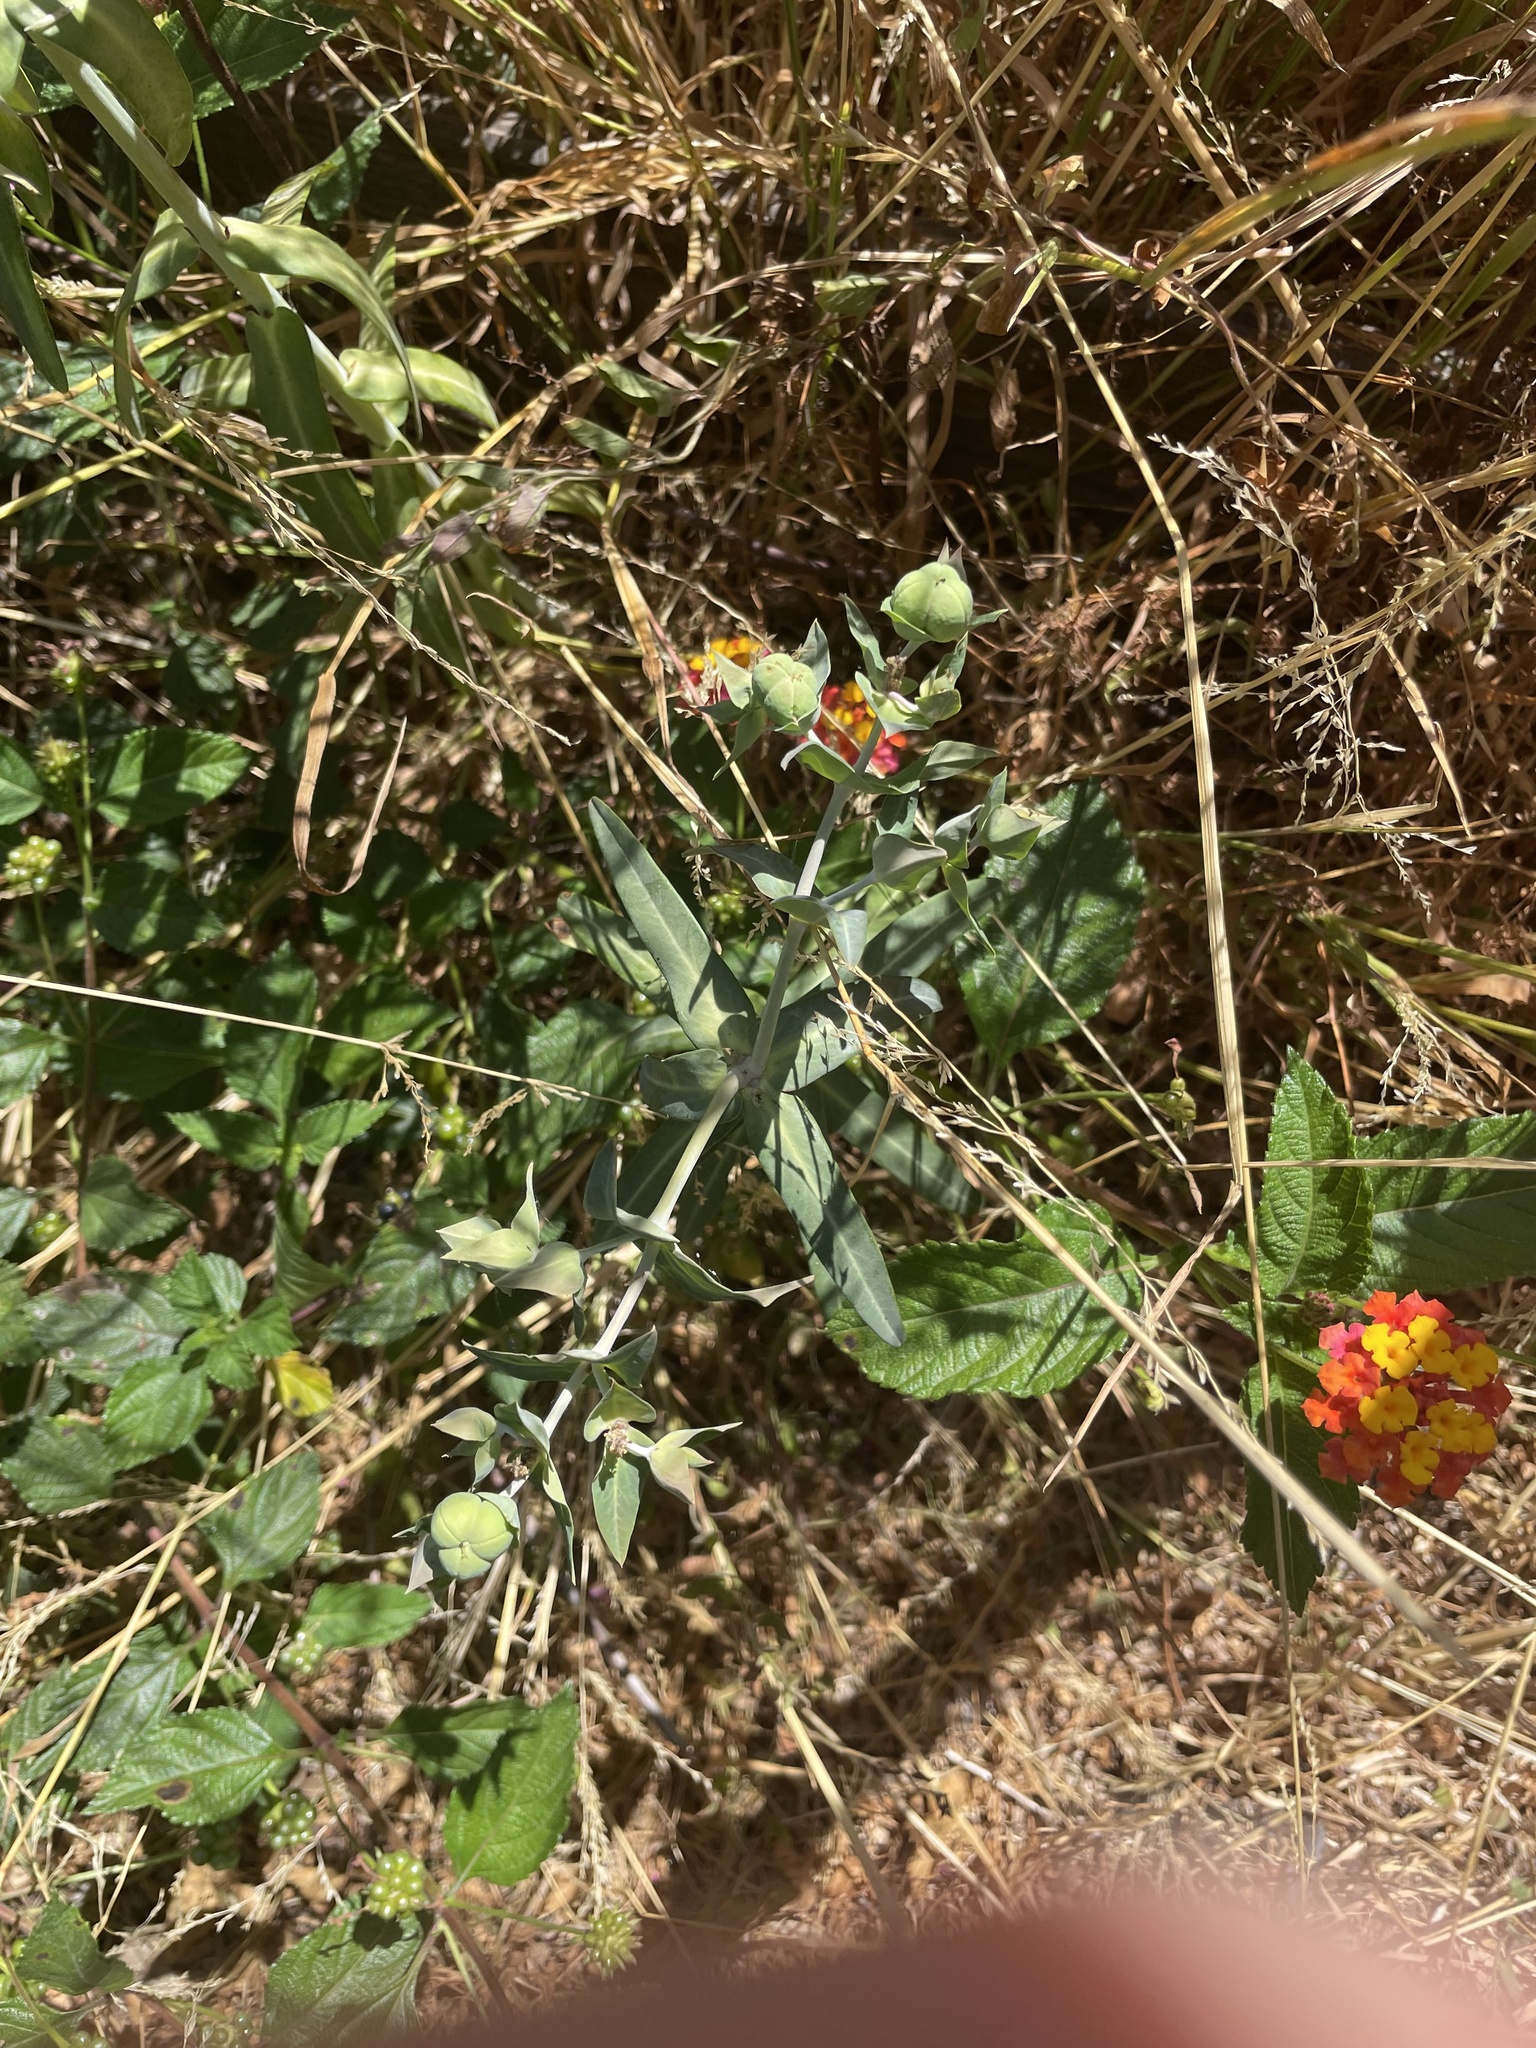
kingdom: Plantae
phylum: Tracheophyta
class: Magnoliopsida
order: Malpighiales
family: Euphorbiaceae
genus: Euphorbia
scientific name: Euphorbia lathyris
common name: Caper spurge
